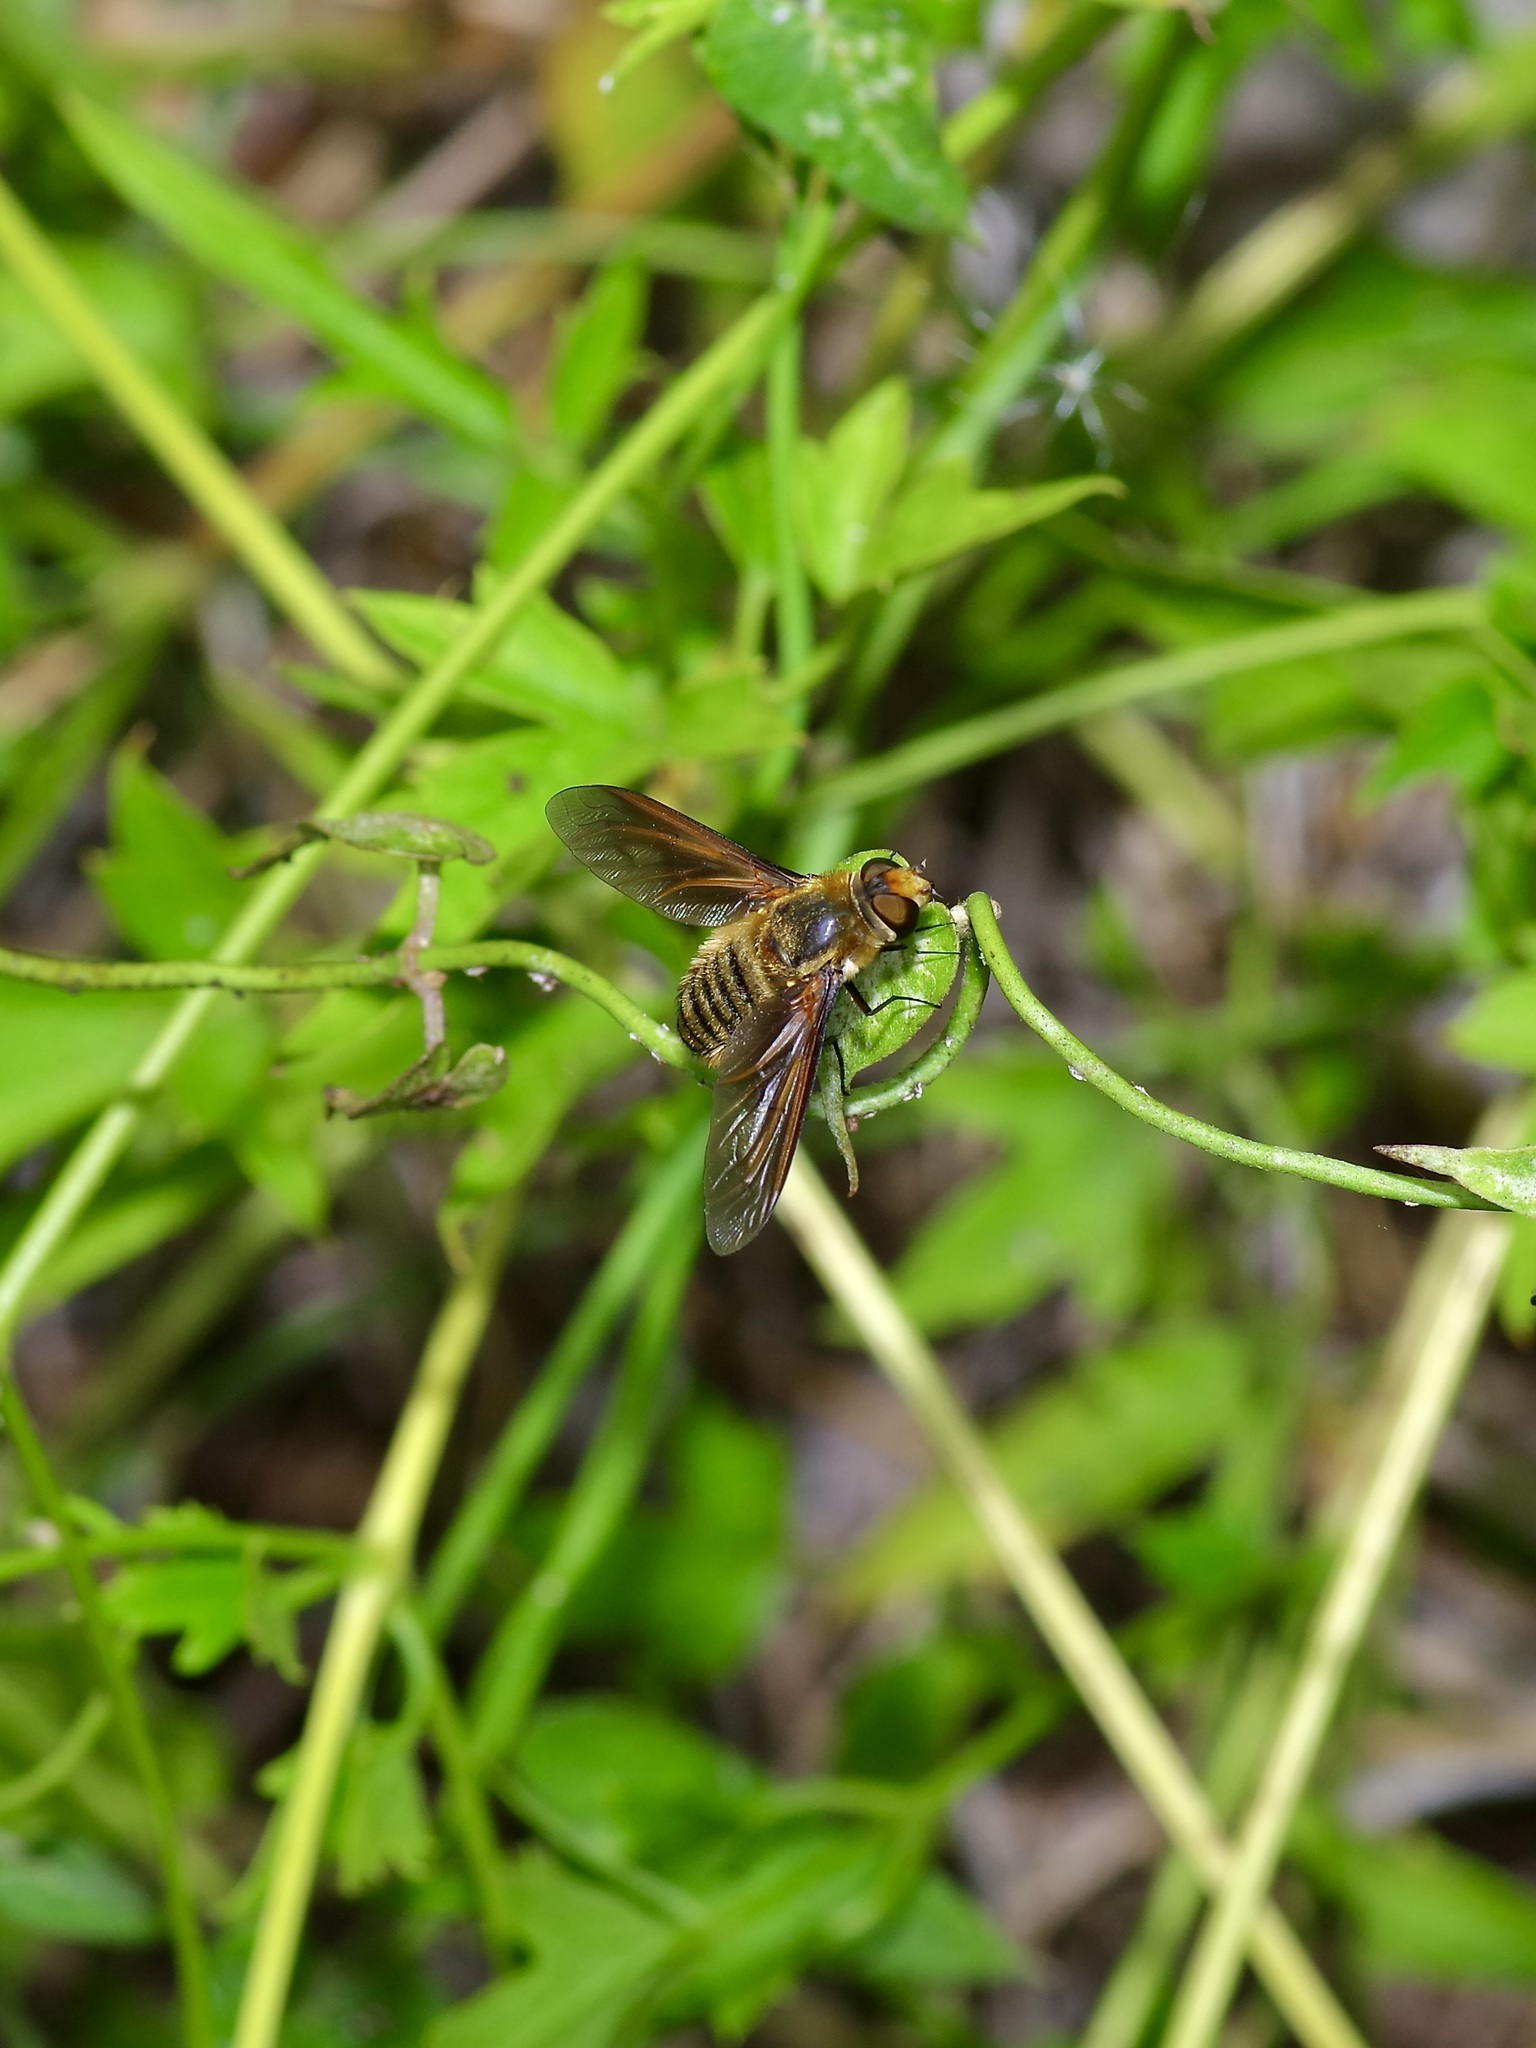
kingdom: Animalia
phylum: Arthropoda
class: Insecta
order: Diptera
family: Bombyliidae
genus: Poecilanthrax
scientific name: Poecilanthrax lucifer
